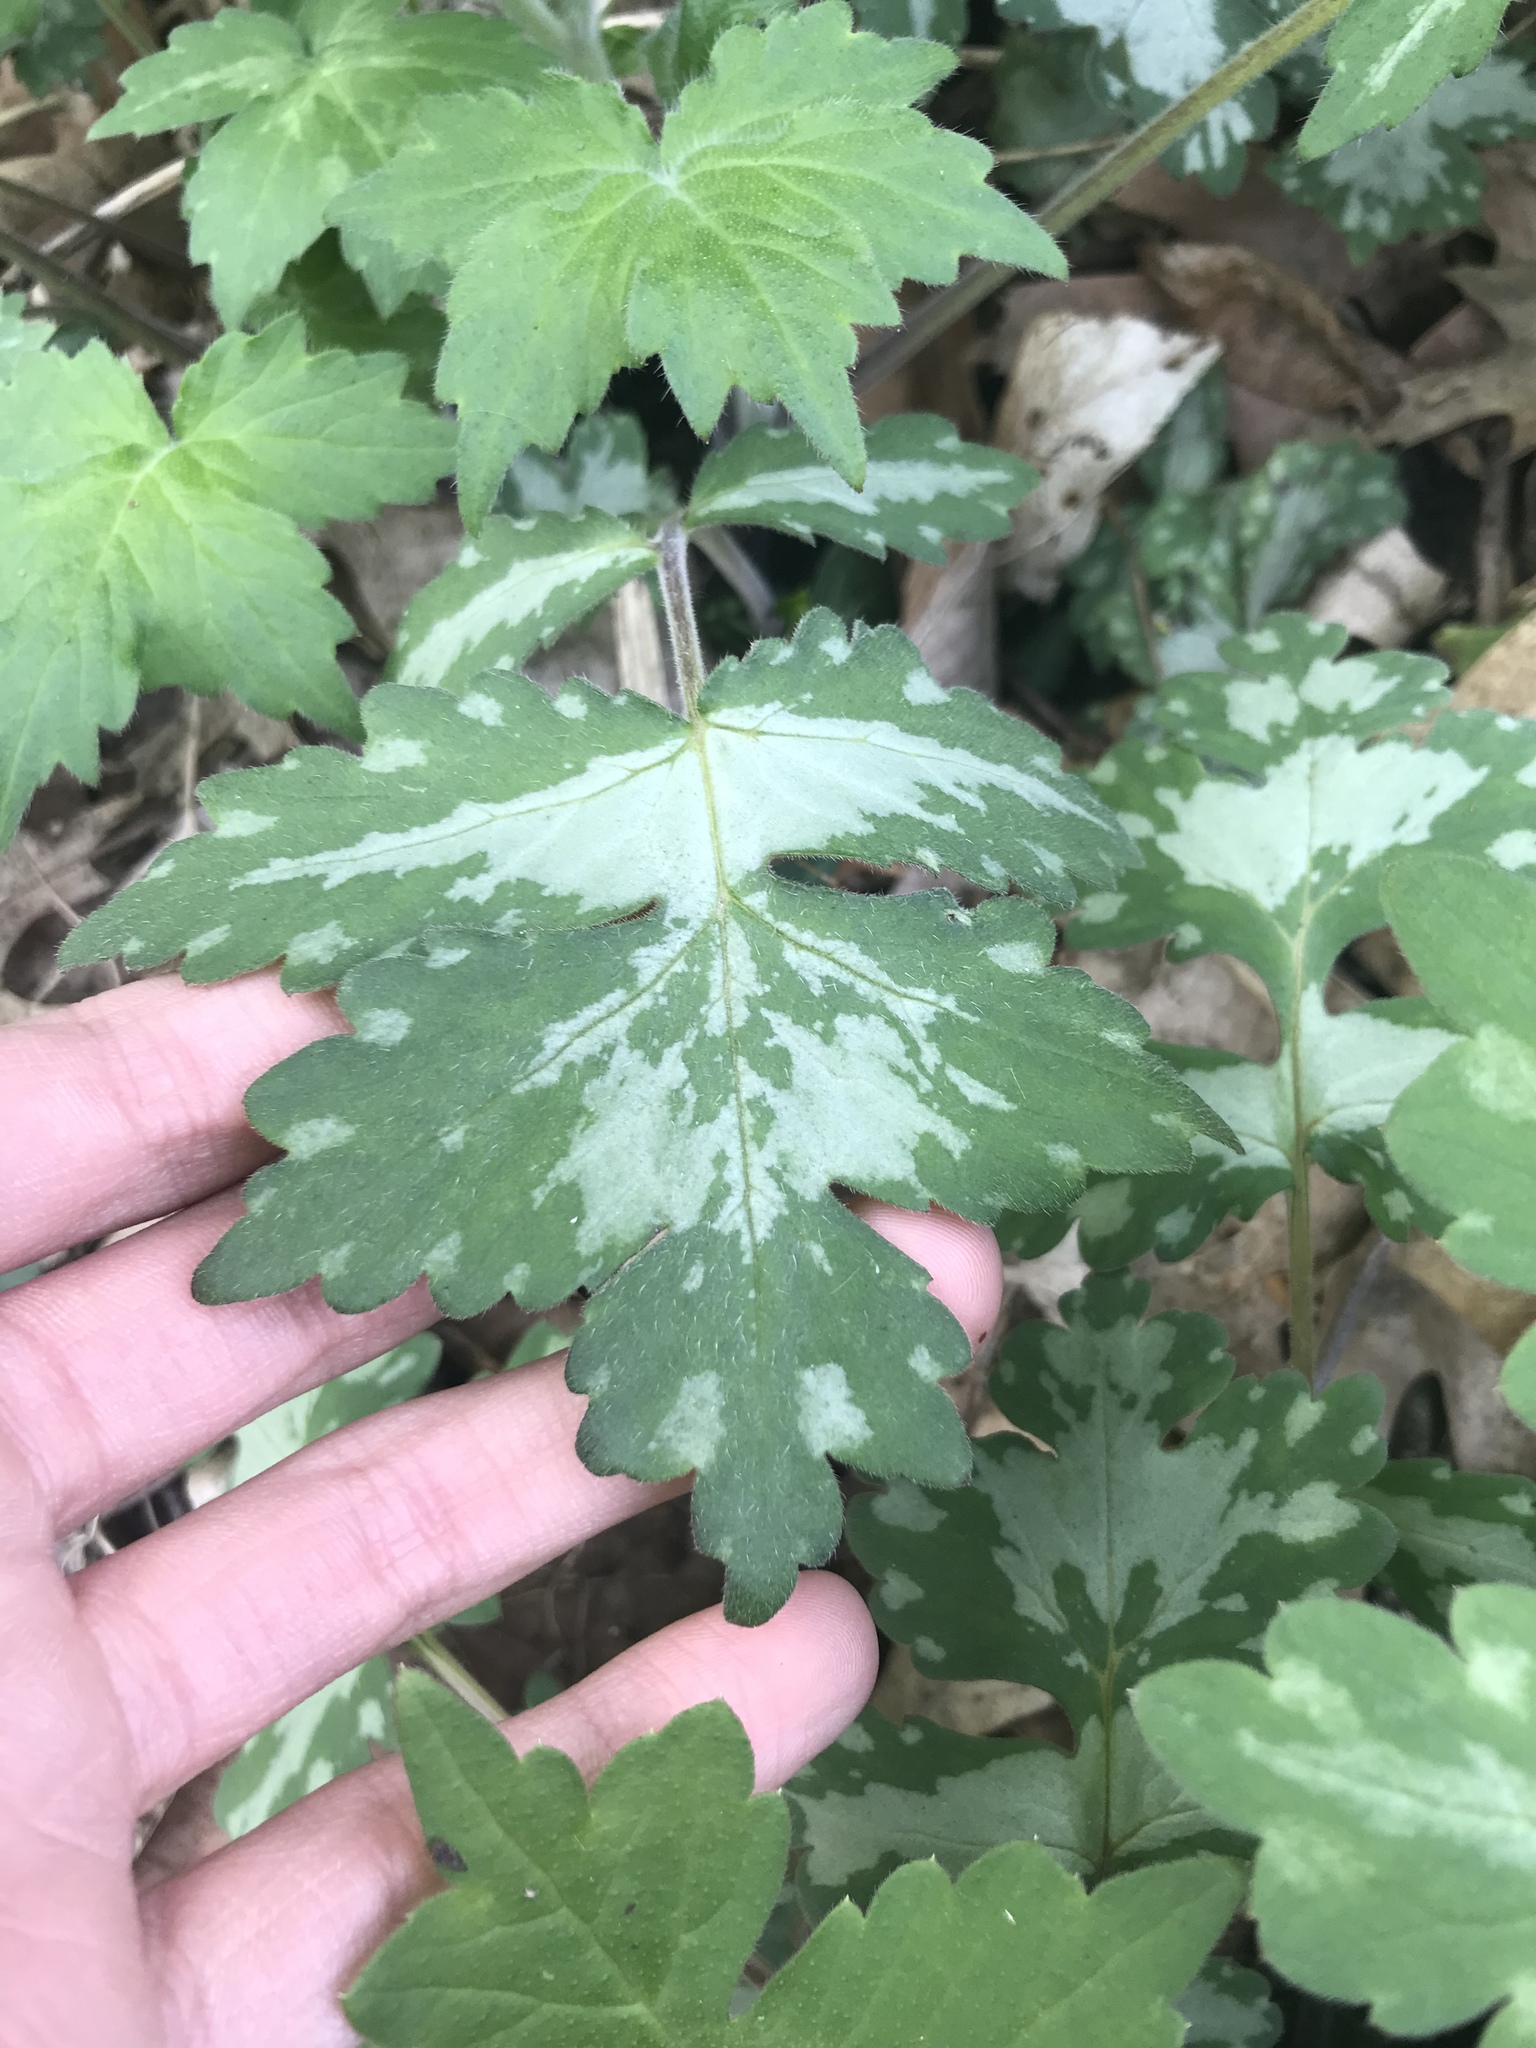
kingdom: Plantae
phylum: Tracheophyta
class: Magnoliopsida
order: Boraginales
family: Hydrophyllaceae
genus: Hydrophyllum
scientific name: Hydrophyllum appendiculatum
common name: Appendaged waterleaf
